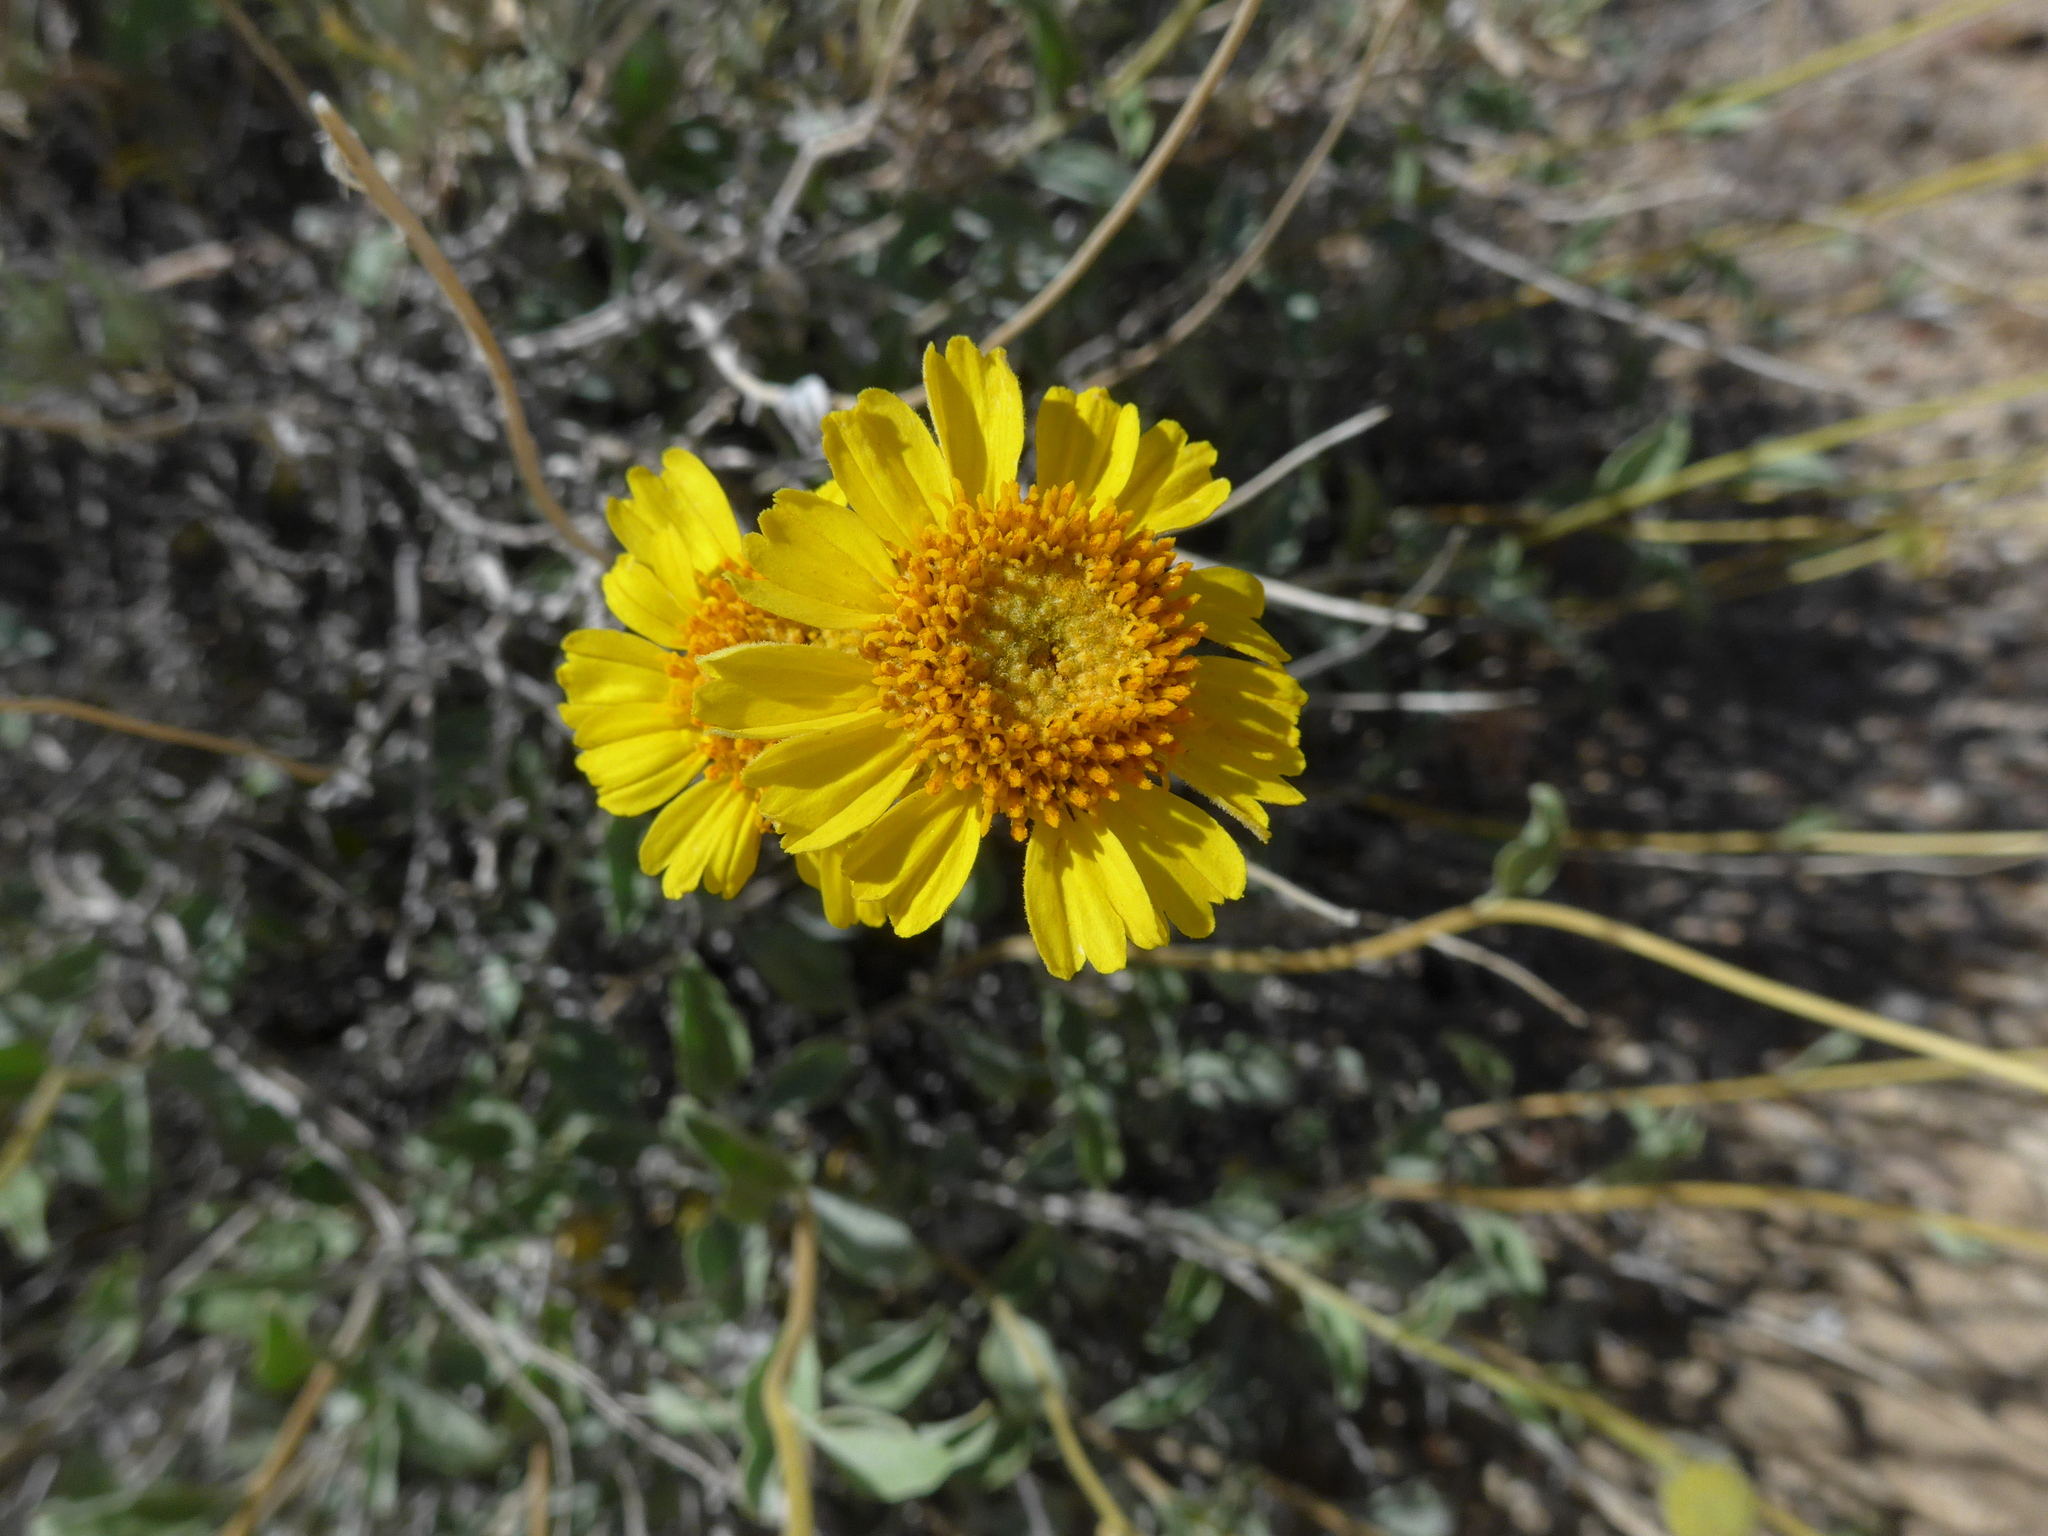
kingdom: Plantae
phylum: Tracheophyta
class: Magnoliopsida
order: Asterales
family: Asteraceae
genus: Encelia
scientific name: Encelia actoni
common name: Acton encelia
